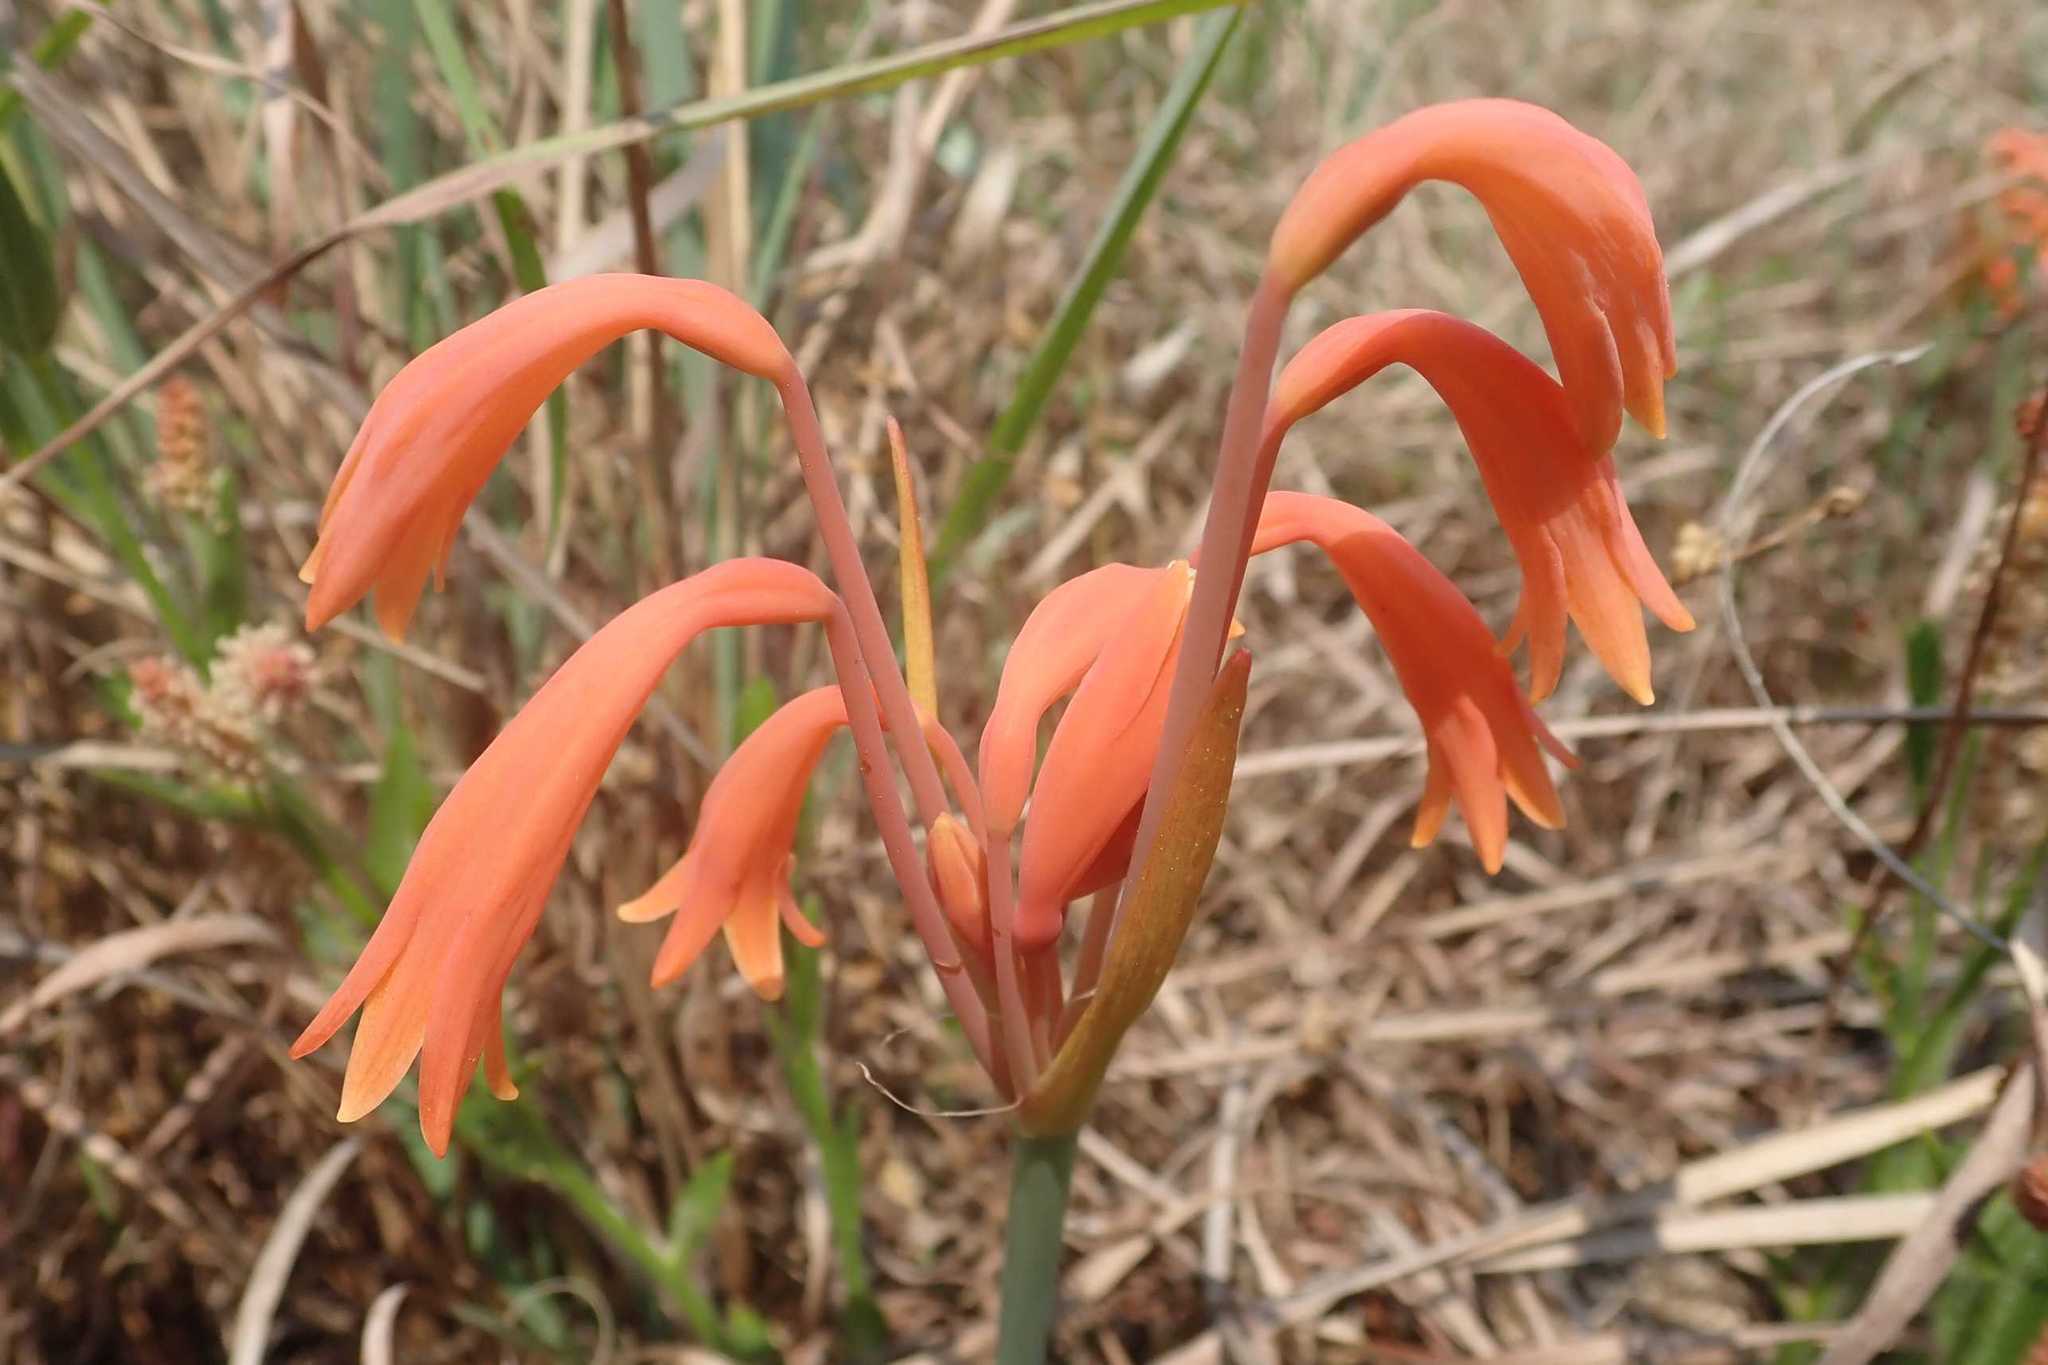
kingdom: Plantae
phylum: Tracheophyta
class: Liliopsida
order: Asparagales
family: Amaryllidaceae
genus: Cyrtanthus
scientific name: Cyrtanthus bicolor
